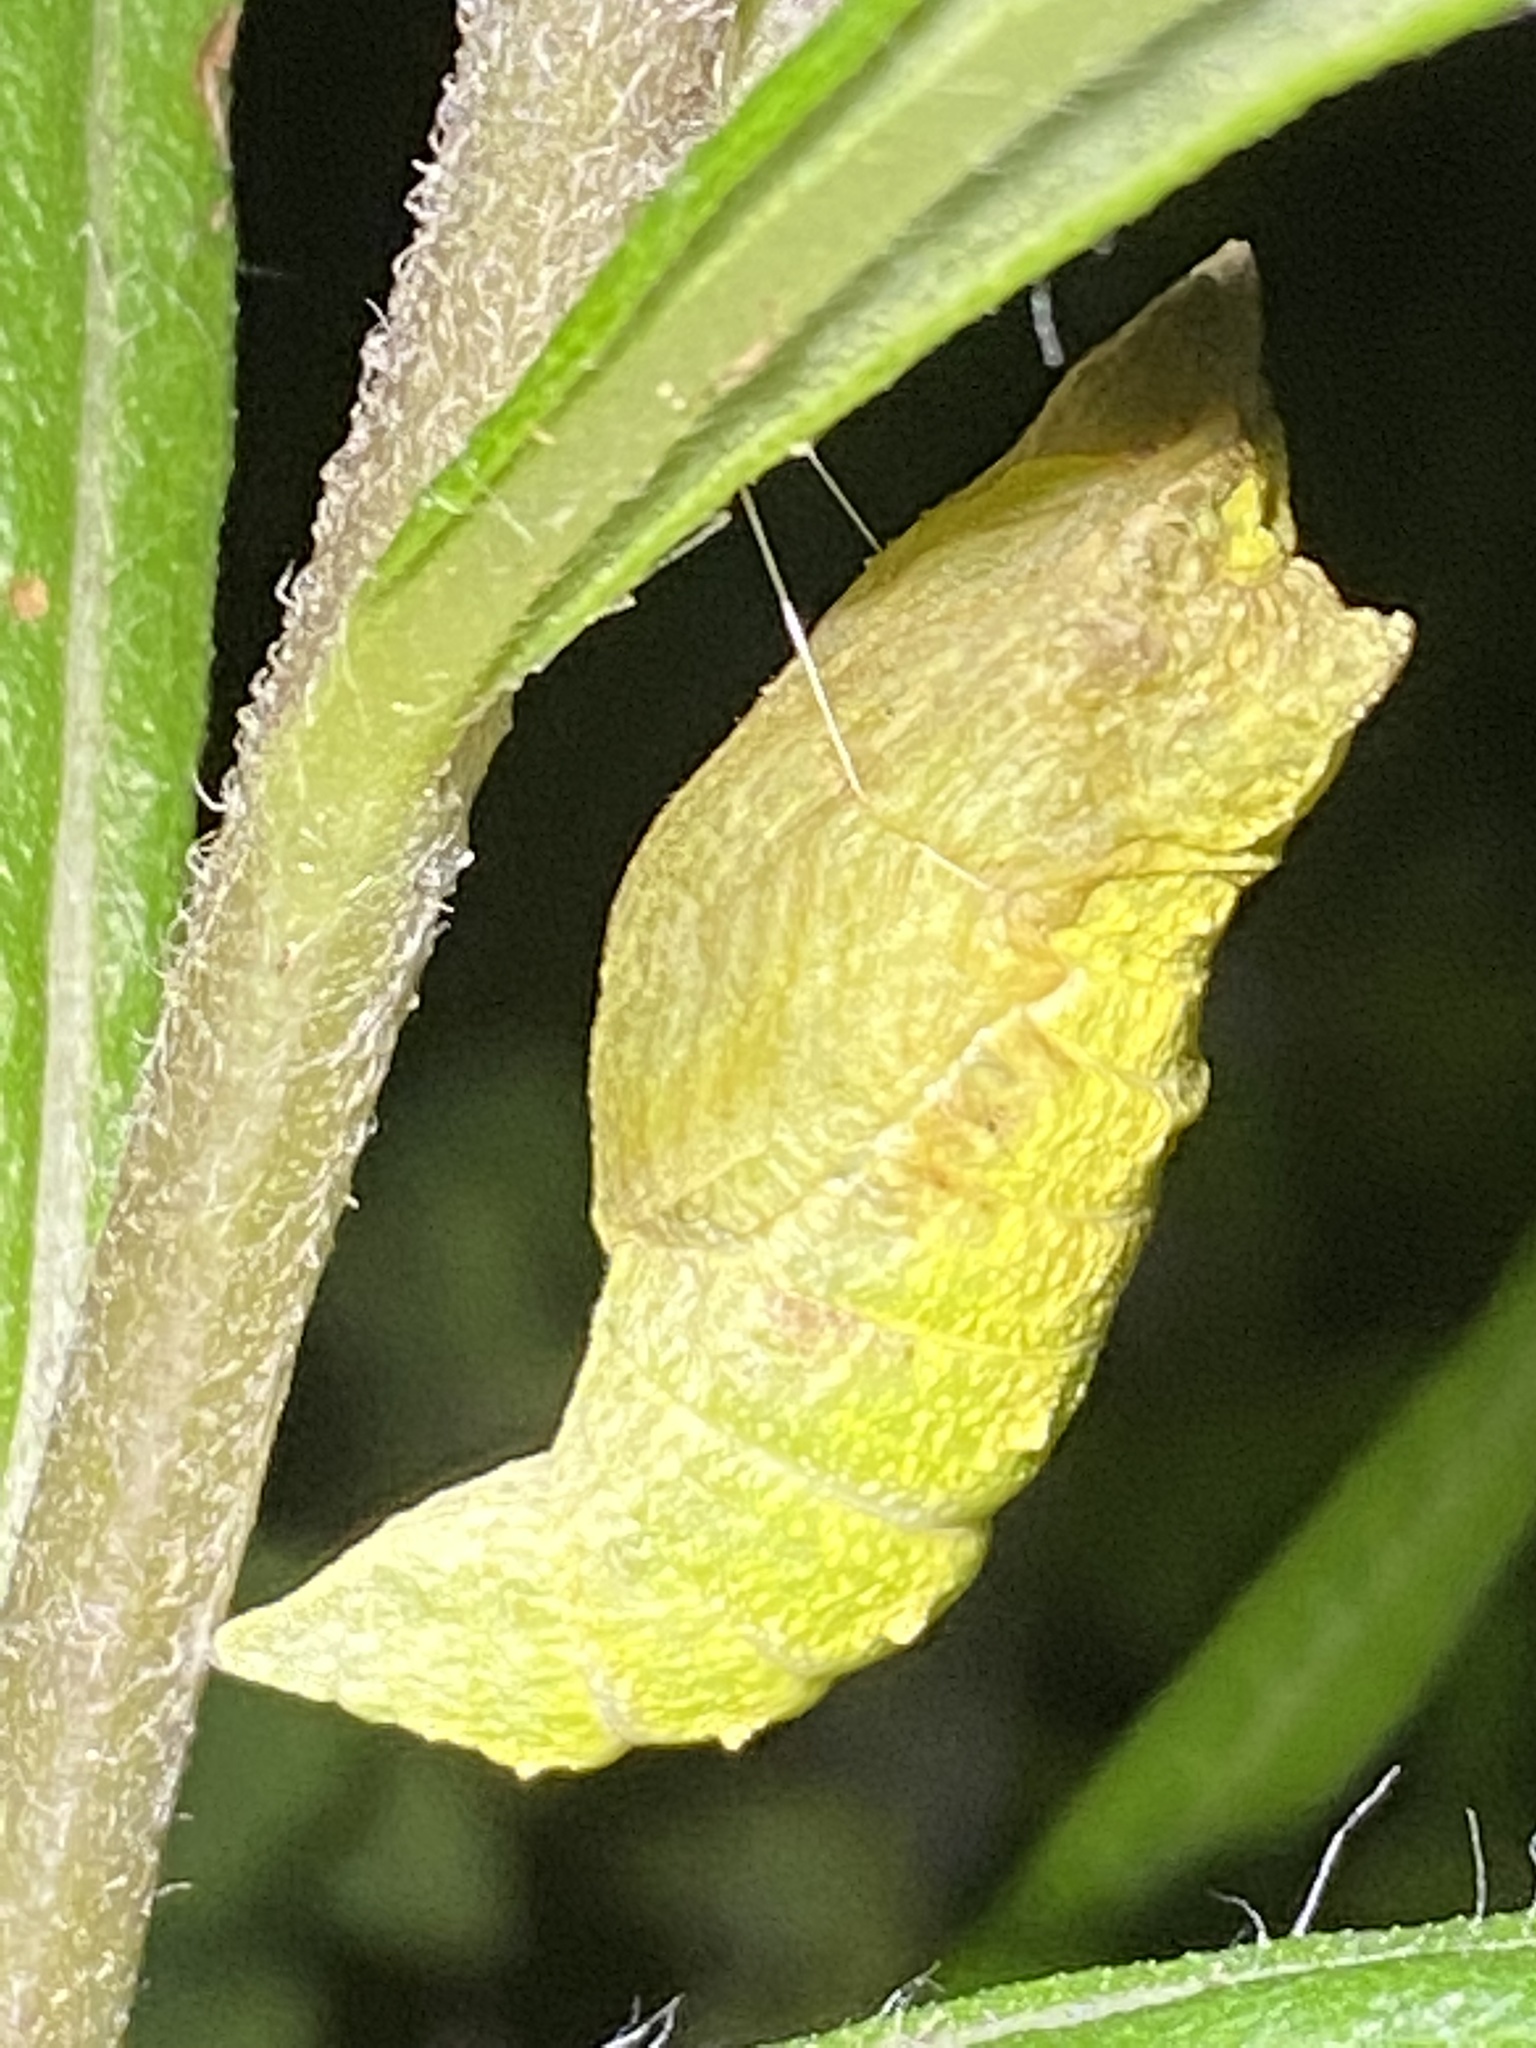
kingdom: Animalia
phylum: Arthropoda
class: Insecta
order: Lepidoptera
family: Papilionidae
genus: Papilio
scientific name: Papilio polyxenes
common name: Black swallowtail
